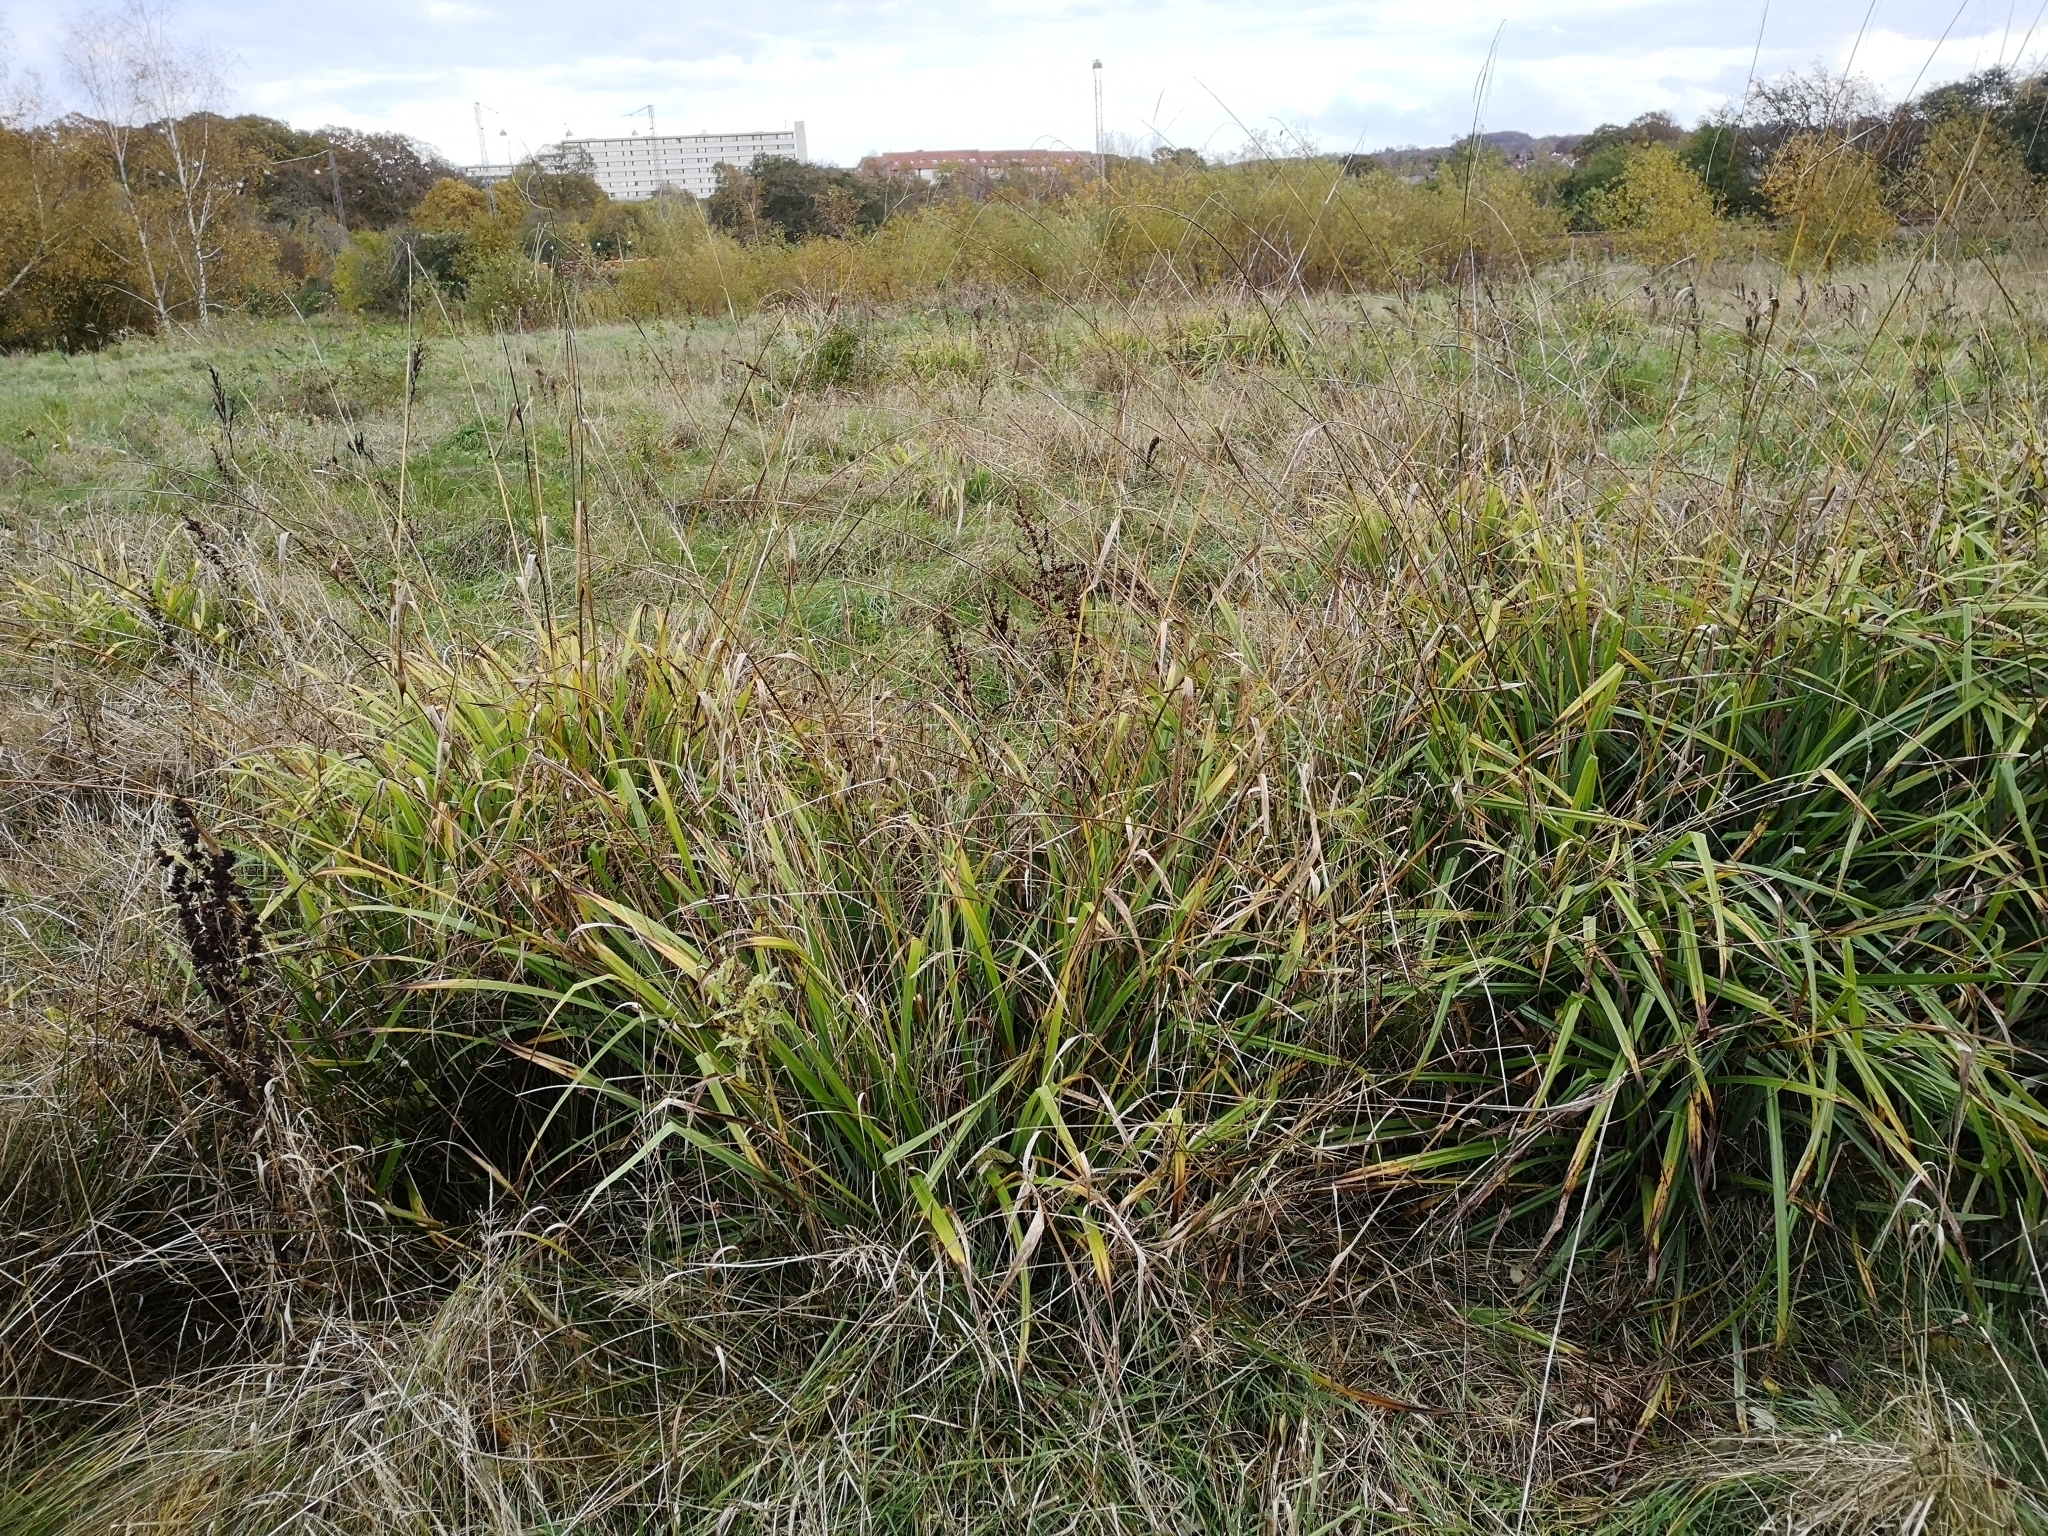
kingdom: Plantae
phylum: Tracheophyta
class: Liliopsida
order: Poales
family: Cyperaceae
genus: Carex
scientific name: Carex pendula
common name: Pendulous sedge
